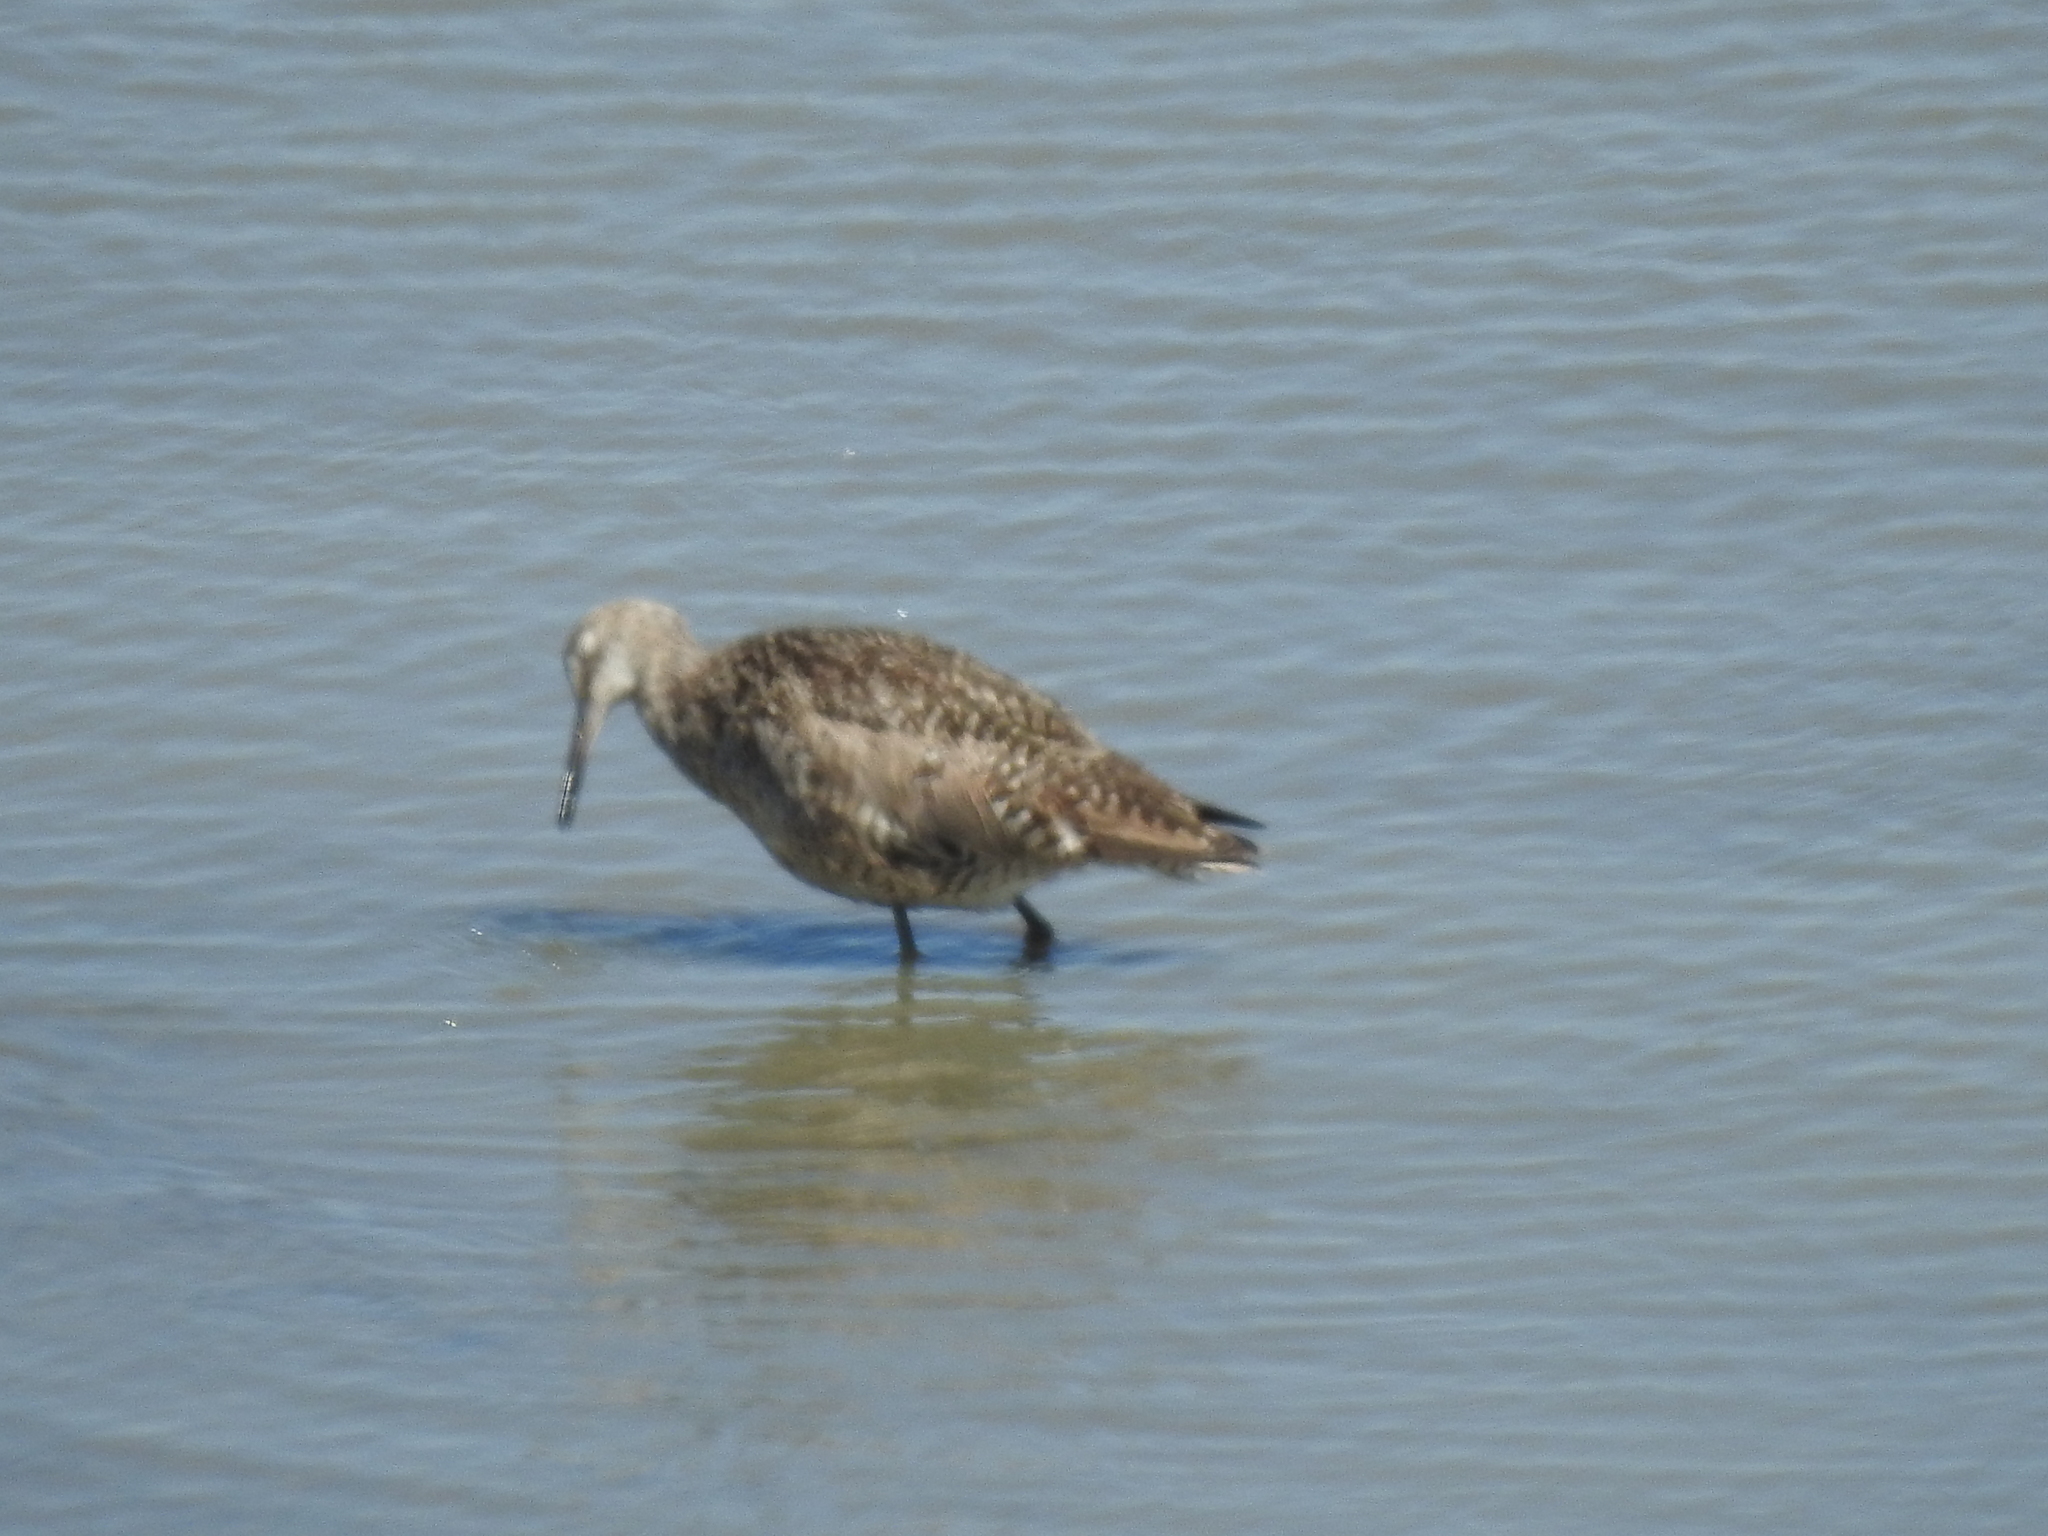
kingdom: Animalia
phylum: Chordata
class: Aves
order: Charadriiformes
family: Scolopacidae
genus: Tringa
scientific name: Tringa semipalmata
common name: Willet
